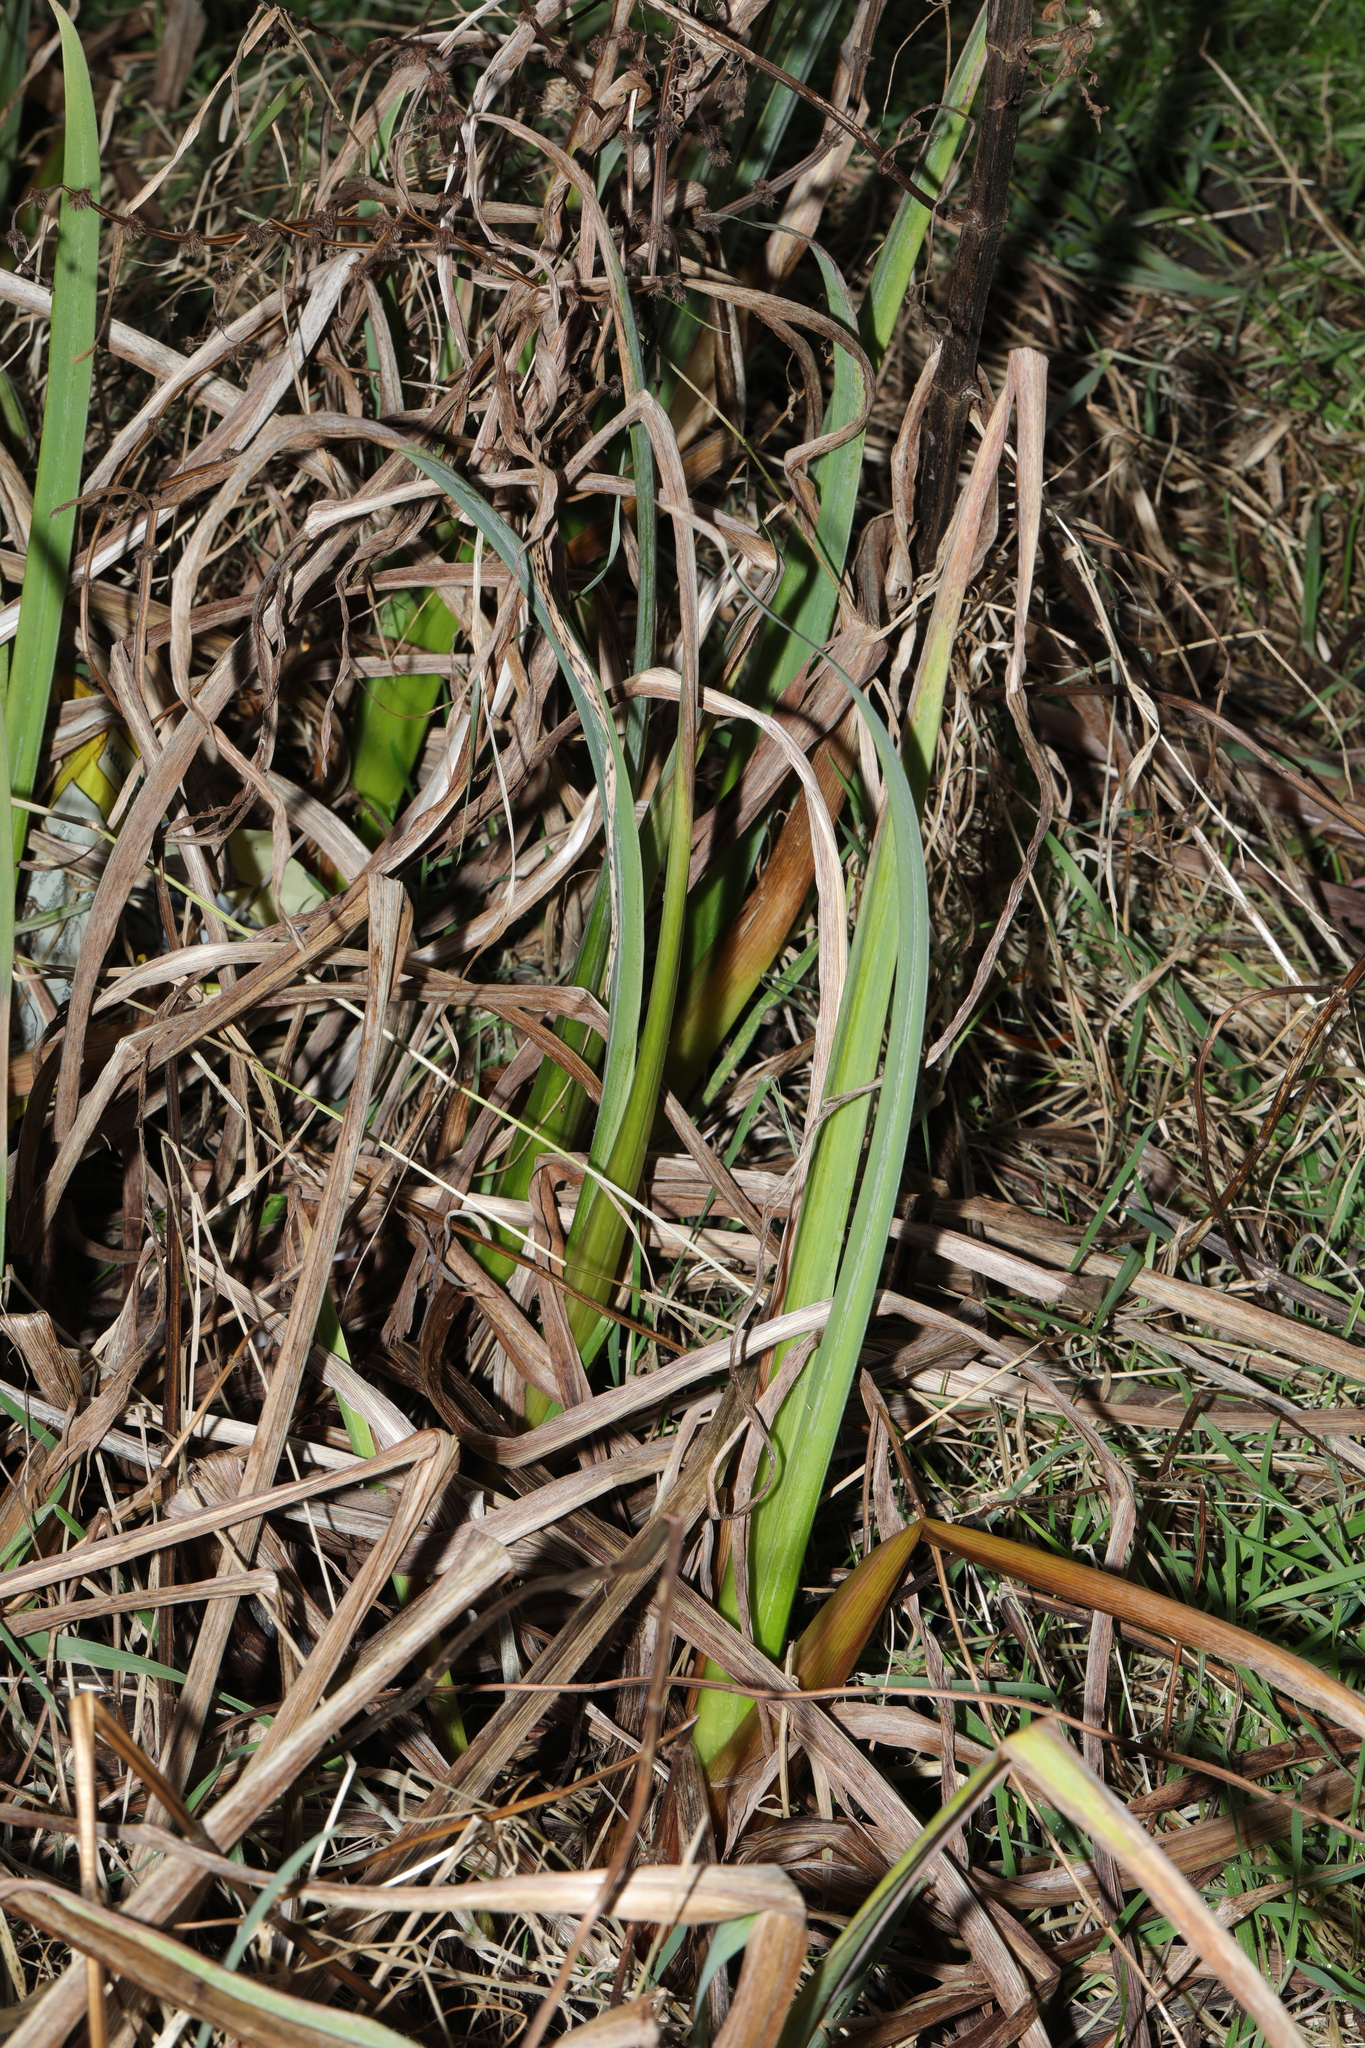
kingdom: Plantae
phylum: Tracheophyta
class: Liliopsida
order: Asparagales
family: Iridaceae
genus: Iris
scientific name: Iris pseudacorus
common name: Yellow flag
